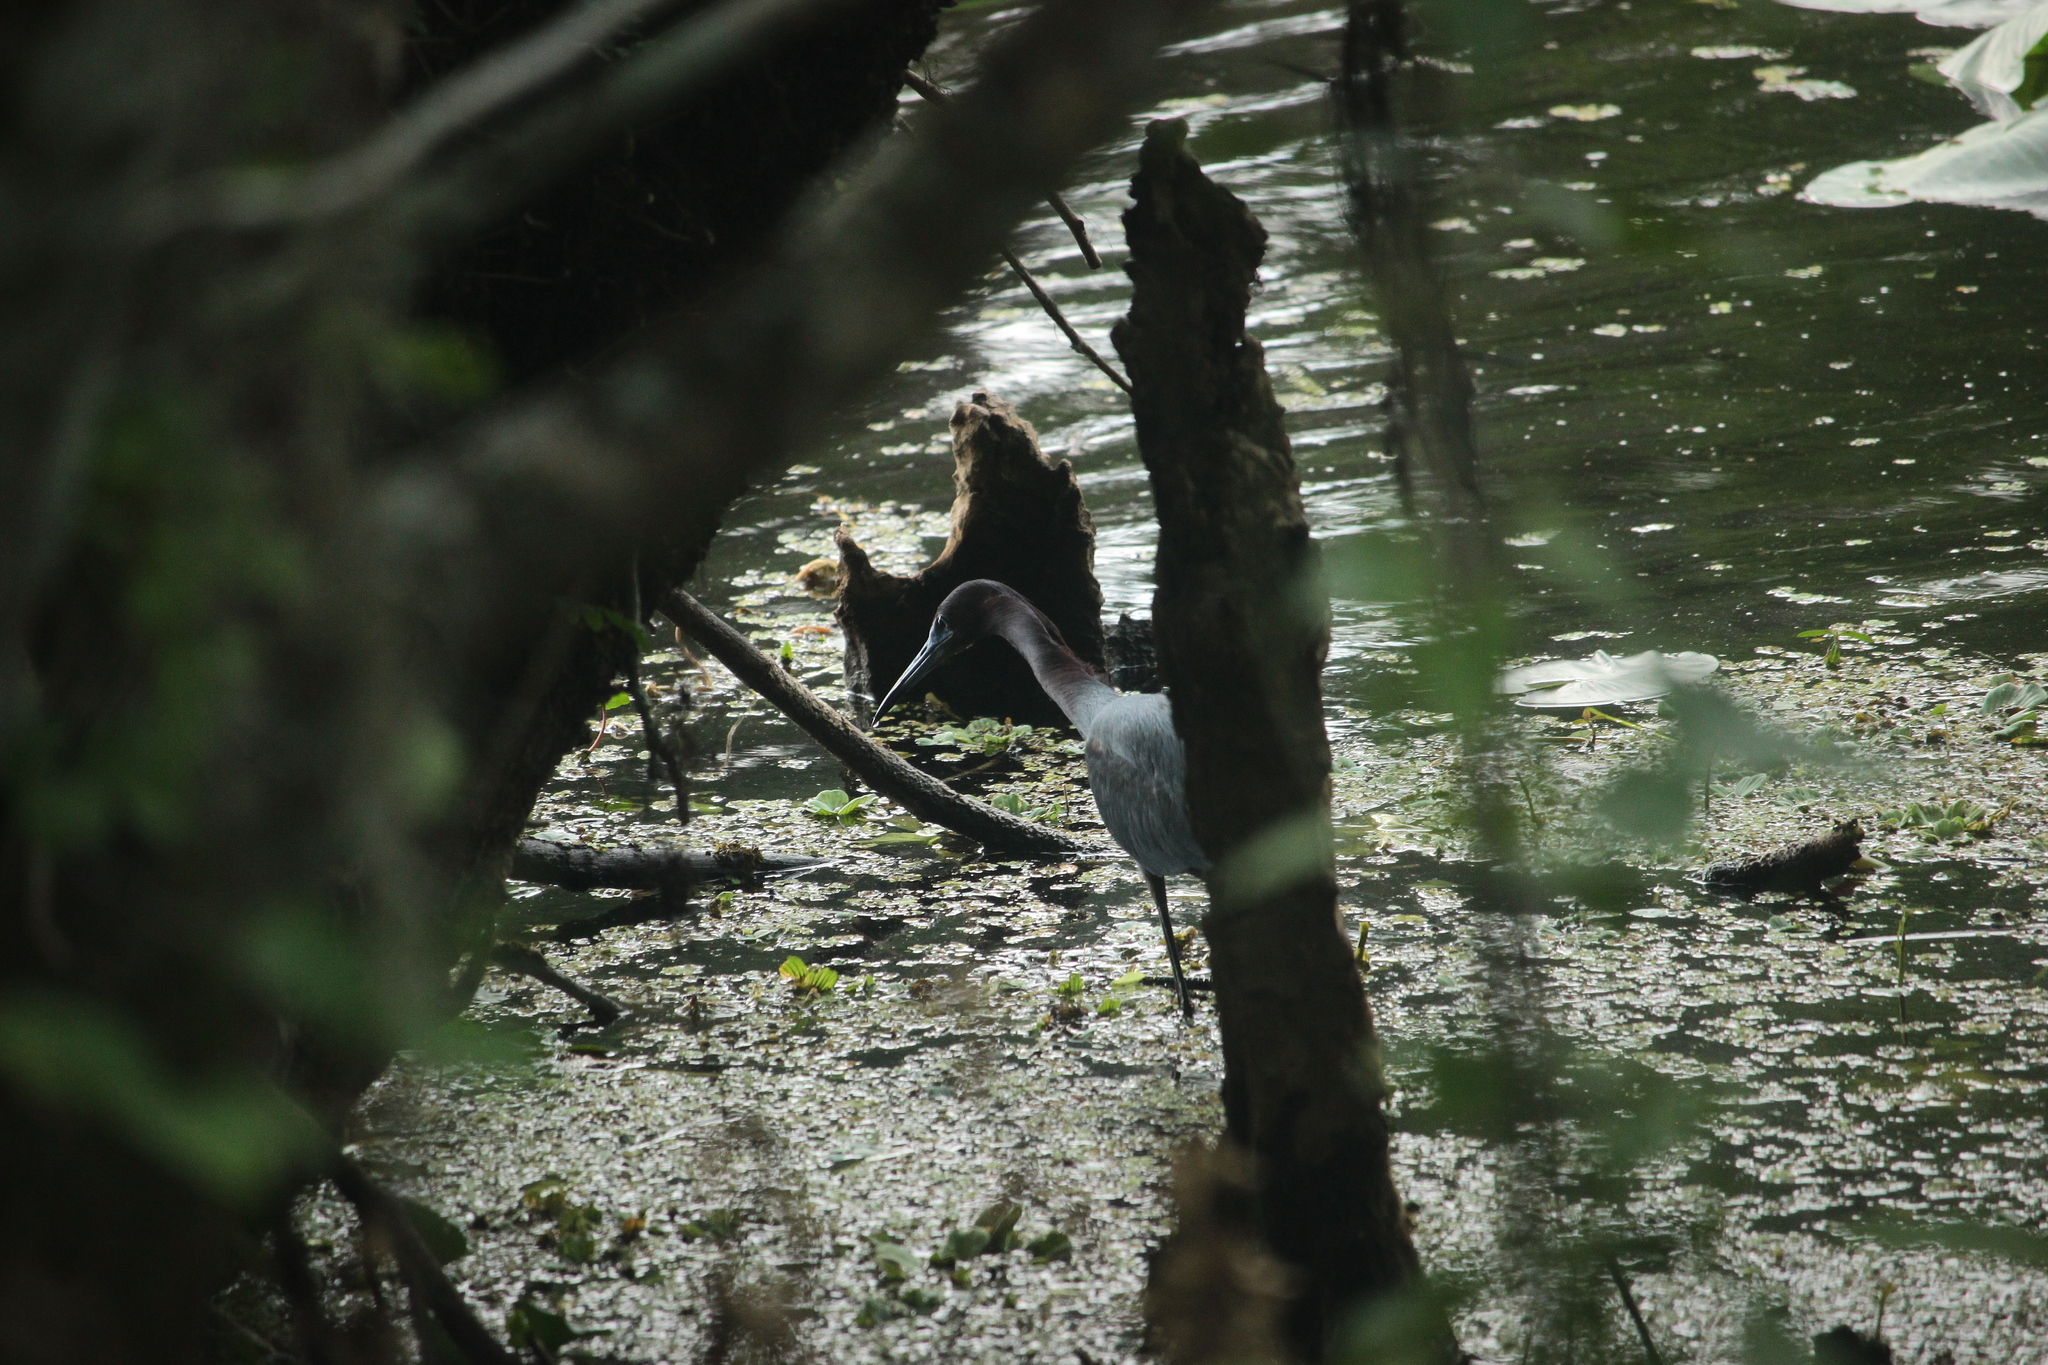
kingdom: Animalia
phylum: Chordata
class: Aves
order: Pelecaniformes
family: Ardeidae
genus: Egretta
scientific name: Egretta caerulea
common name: Little blue heron
